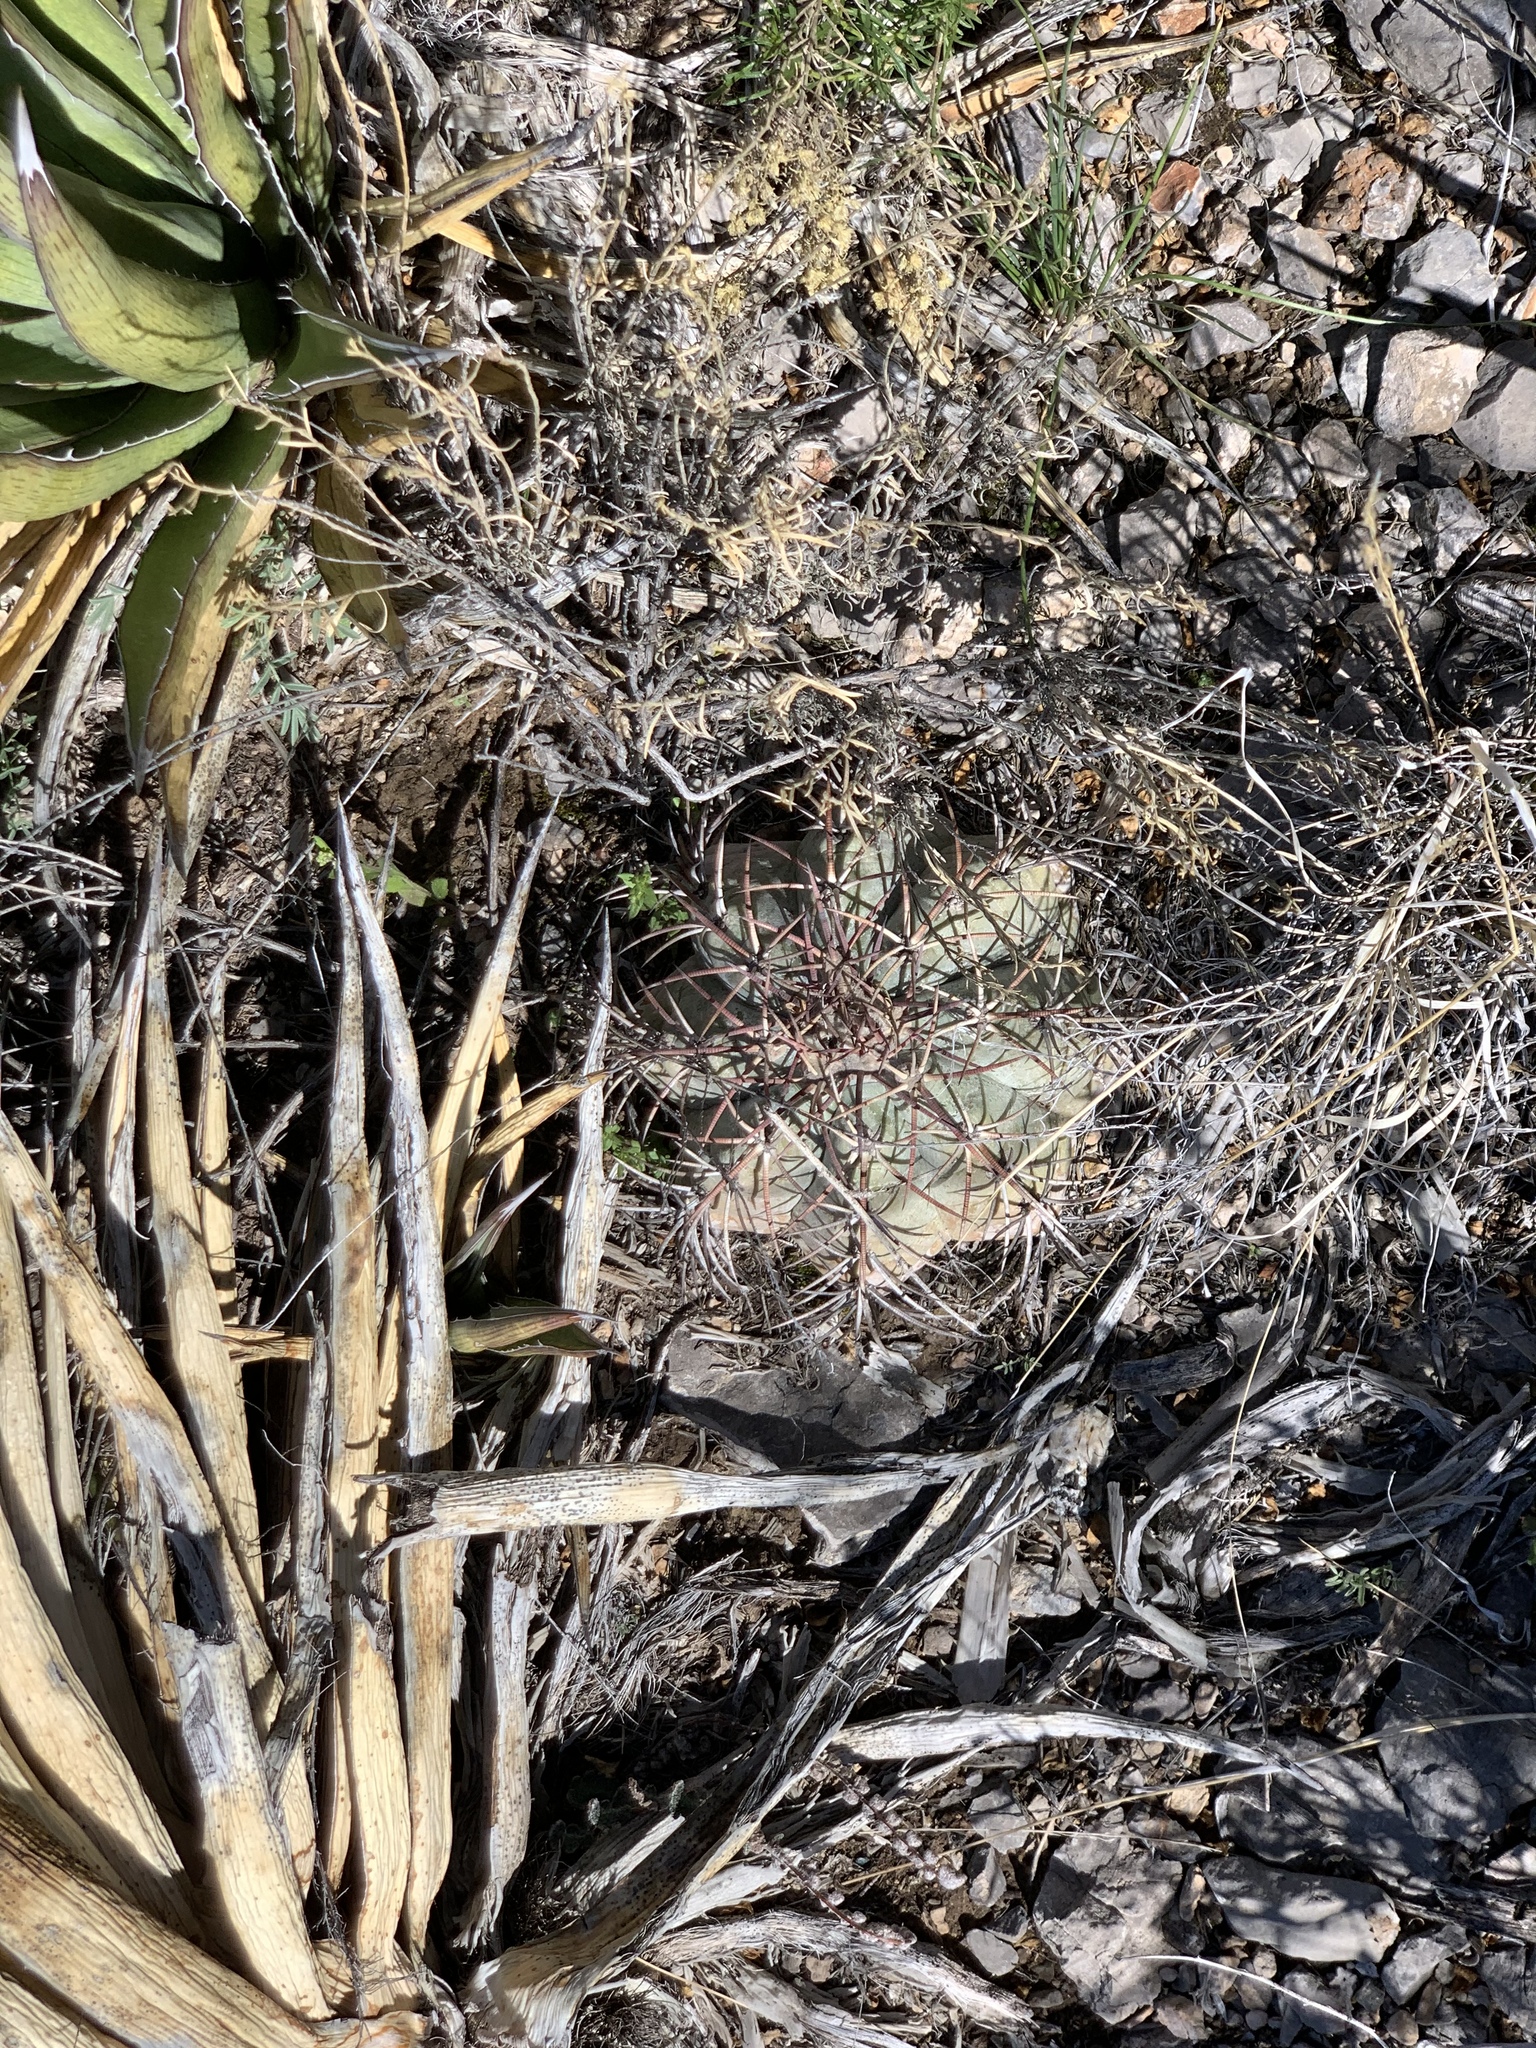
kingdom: Plantae
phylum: Tracheophyta
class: Magnoliopsida
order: Caryophyllales
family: Cactaceae
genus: Echinocactus
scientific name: Echinocactus horizonthalonius
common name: Devilshead
